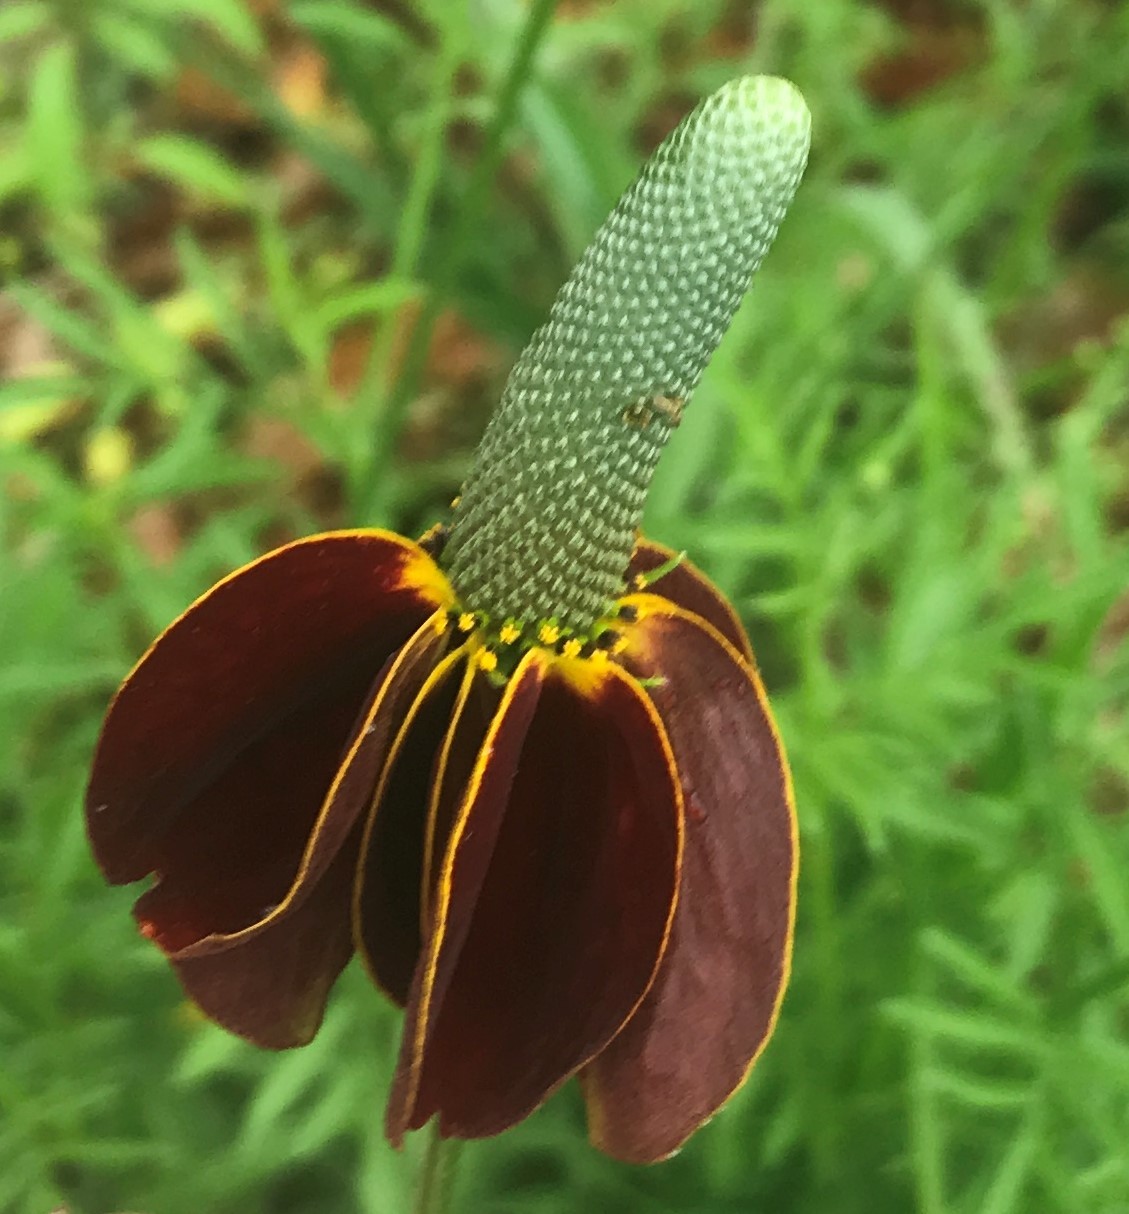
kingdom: Plantae
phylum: Tracheophyta
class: Magnoliopsida
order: Asterales
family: Asteraceae
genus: Ratibida
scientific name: Ratibida columnifera
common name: Prairie coneflower
